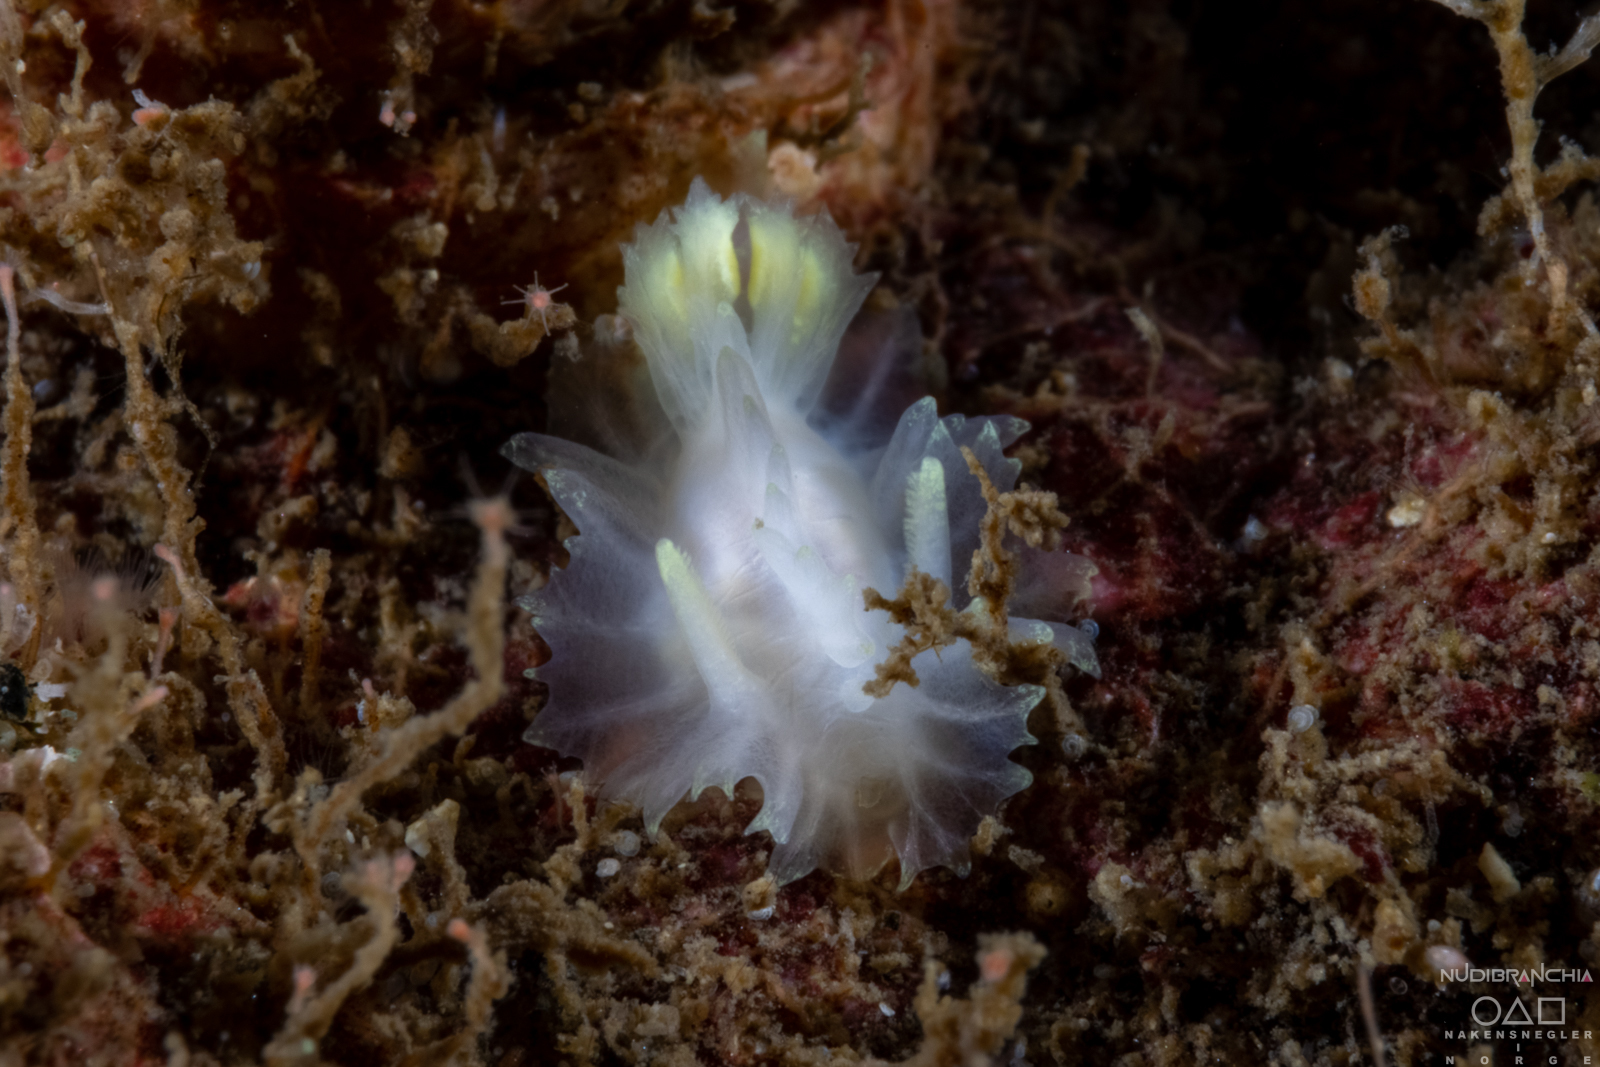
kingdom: Animalia
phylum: Mollusca
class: Gastropoda
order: Nudibranchia
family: Goniodorididae
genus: Lophodoris
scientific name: Lophodoris danielsseni
